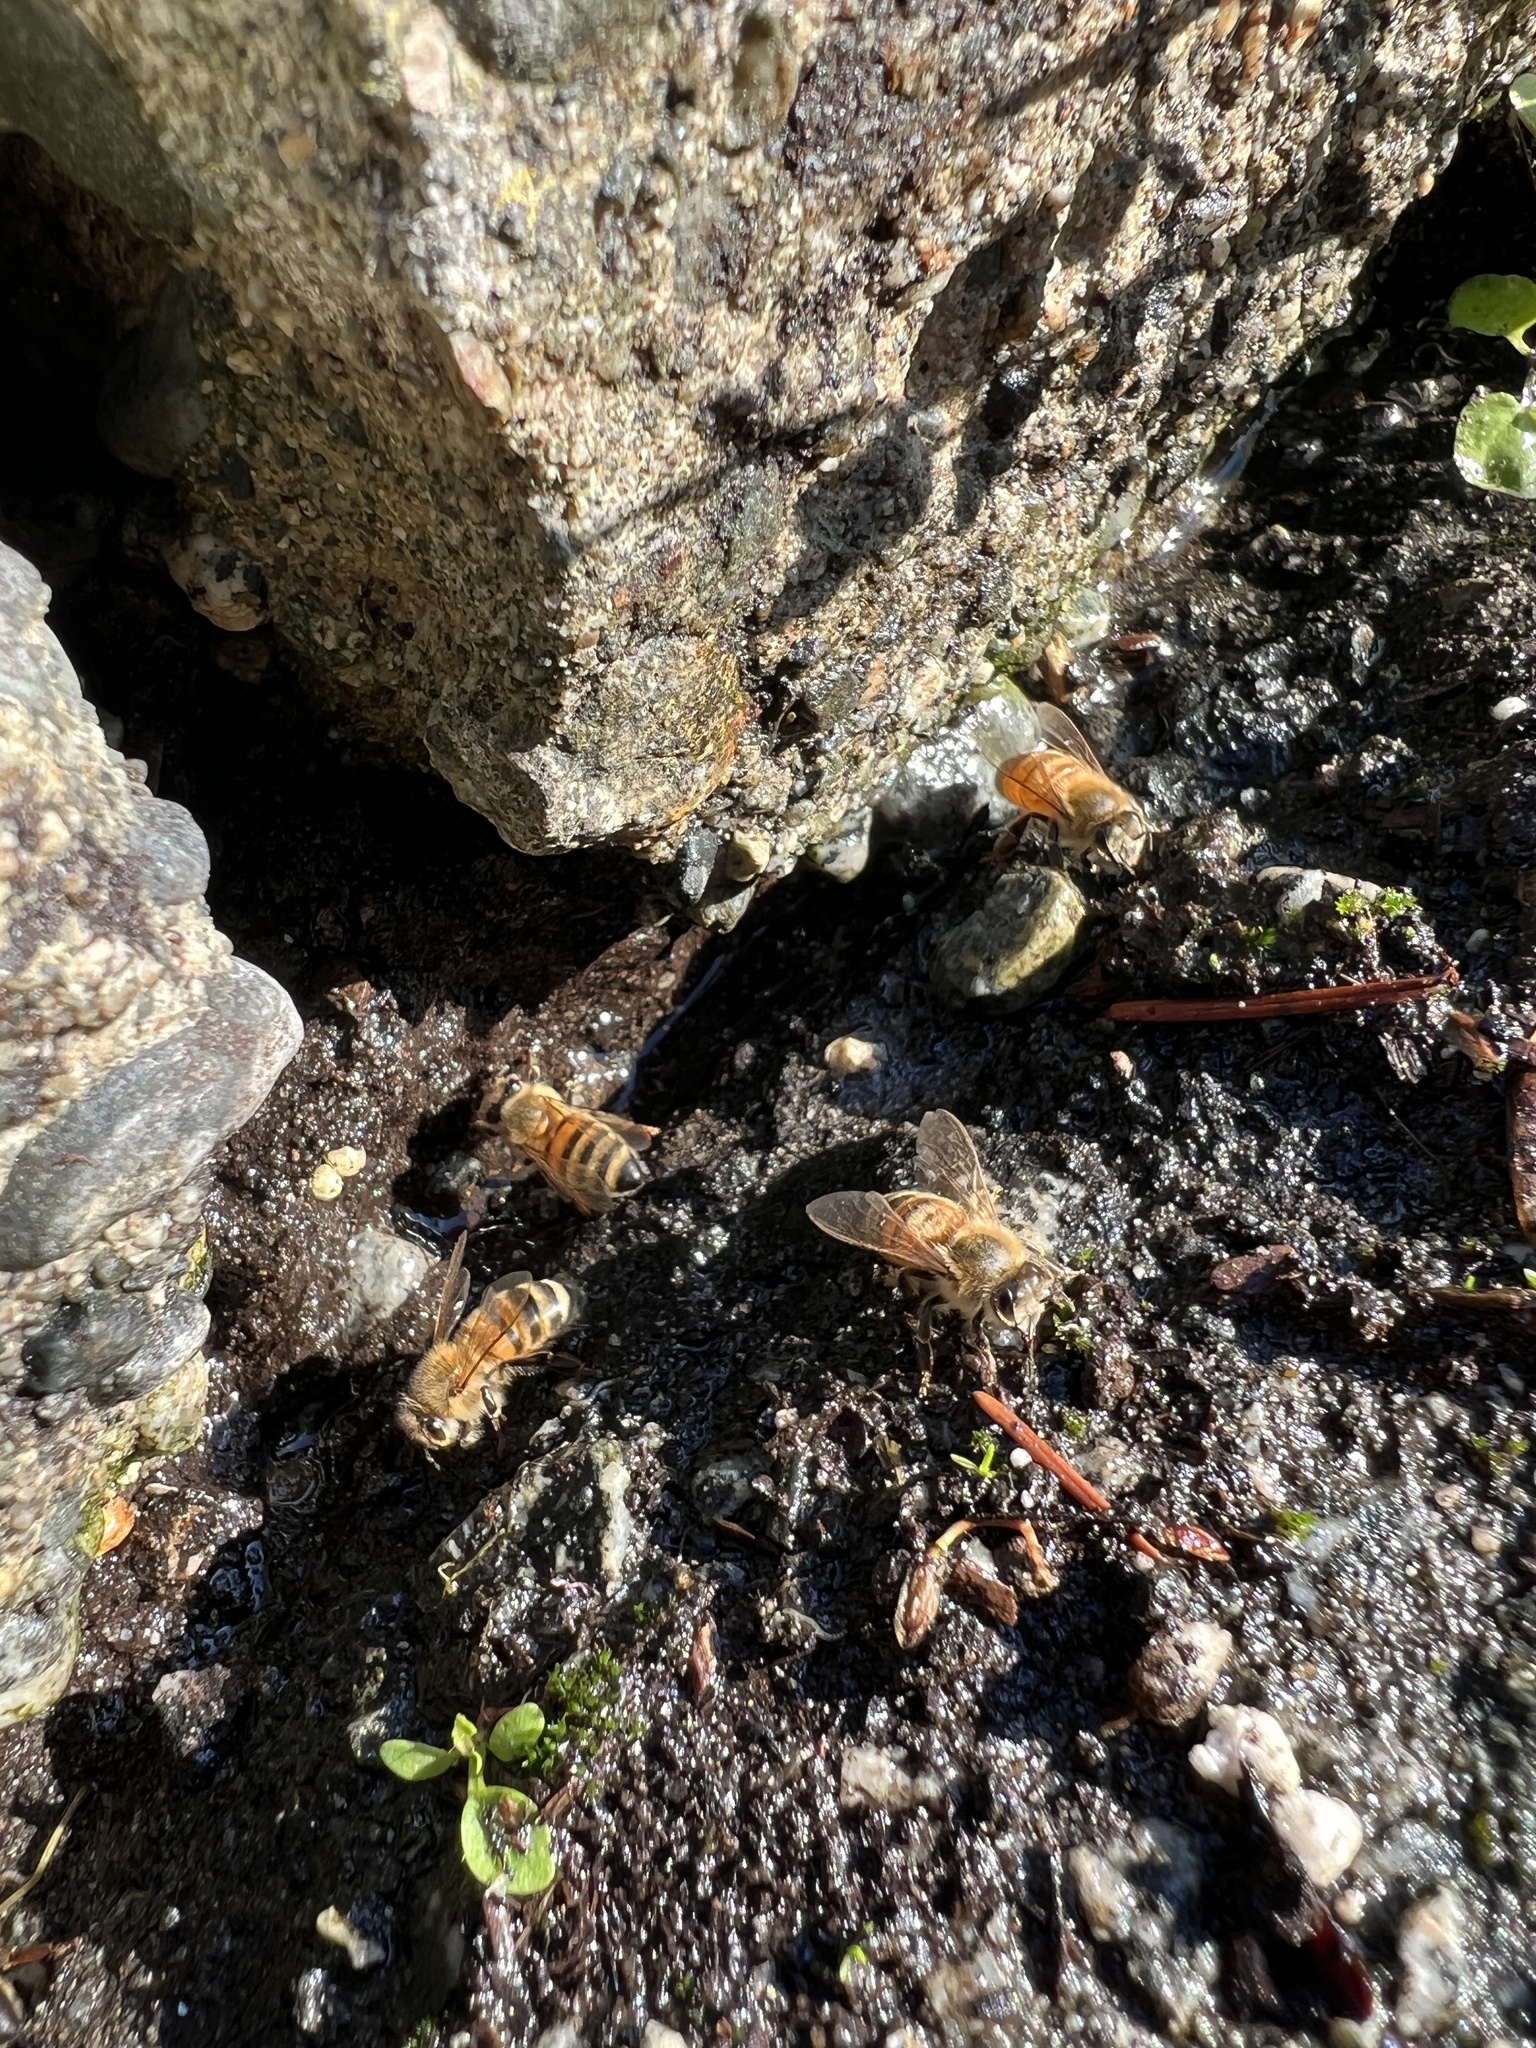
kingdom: Animalia
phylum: Arthropoda
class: Insecta
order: Hymenoptera
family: Apidae
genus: Apis
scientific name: Apis mellifera
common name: Honey bee
